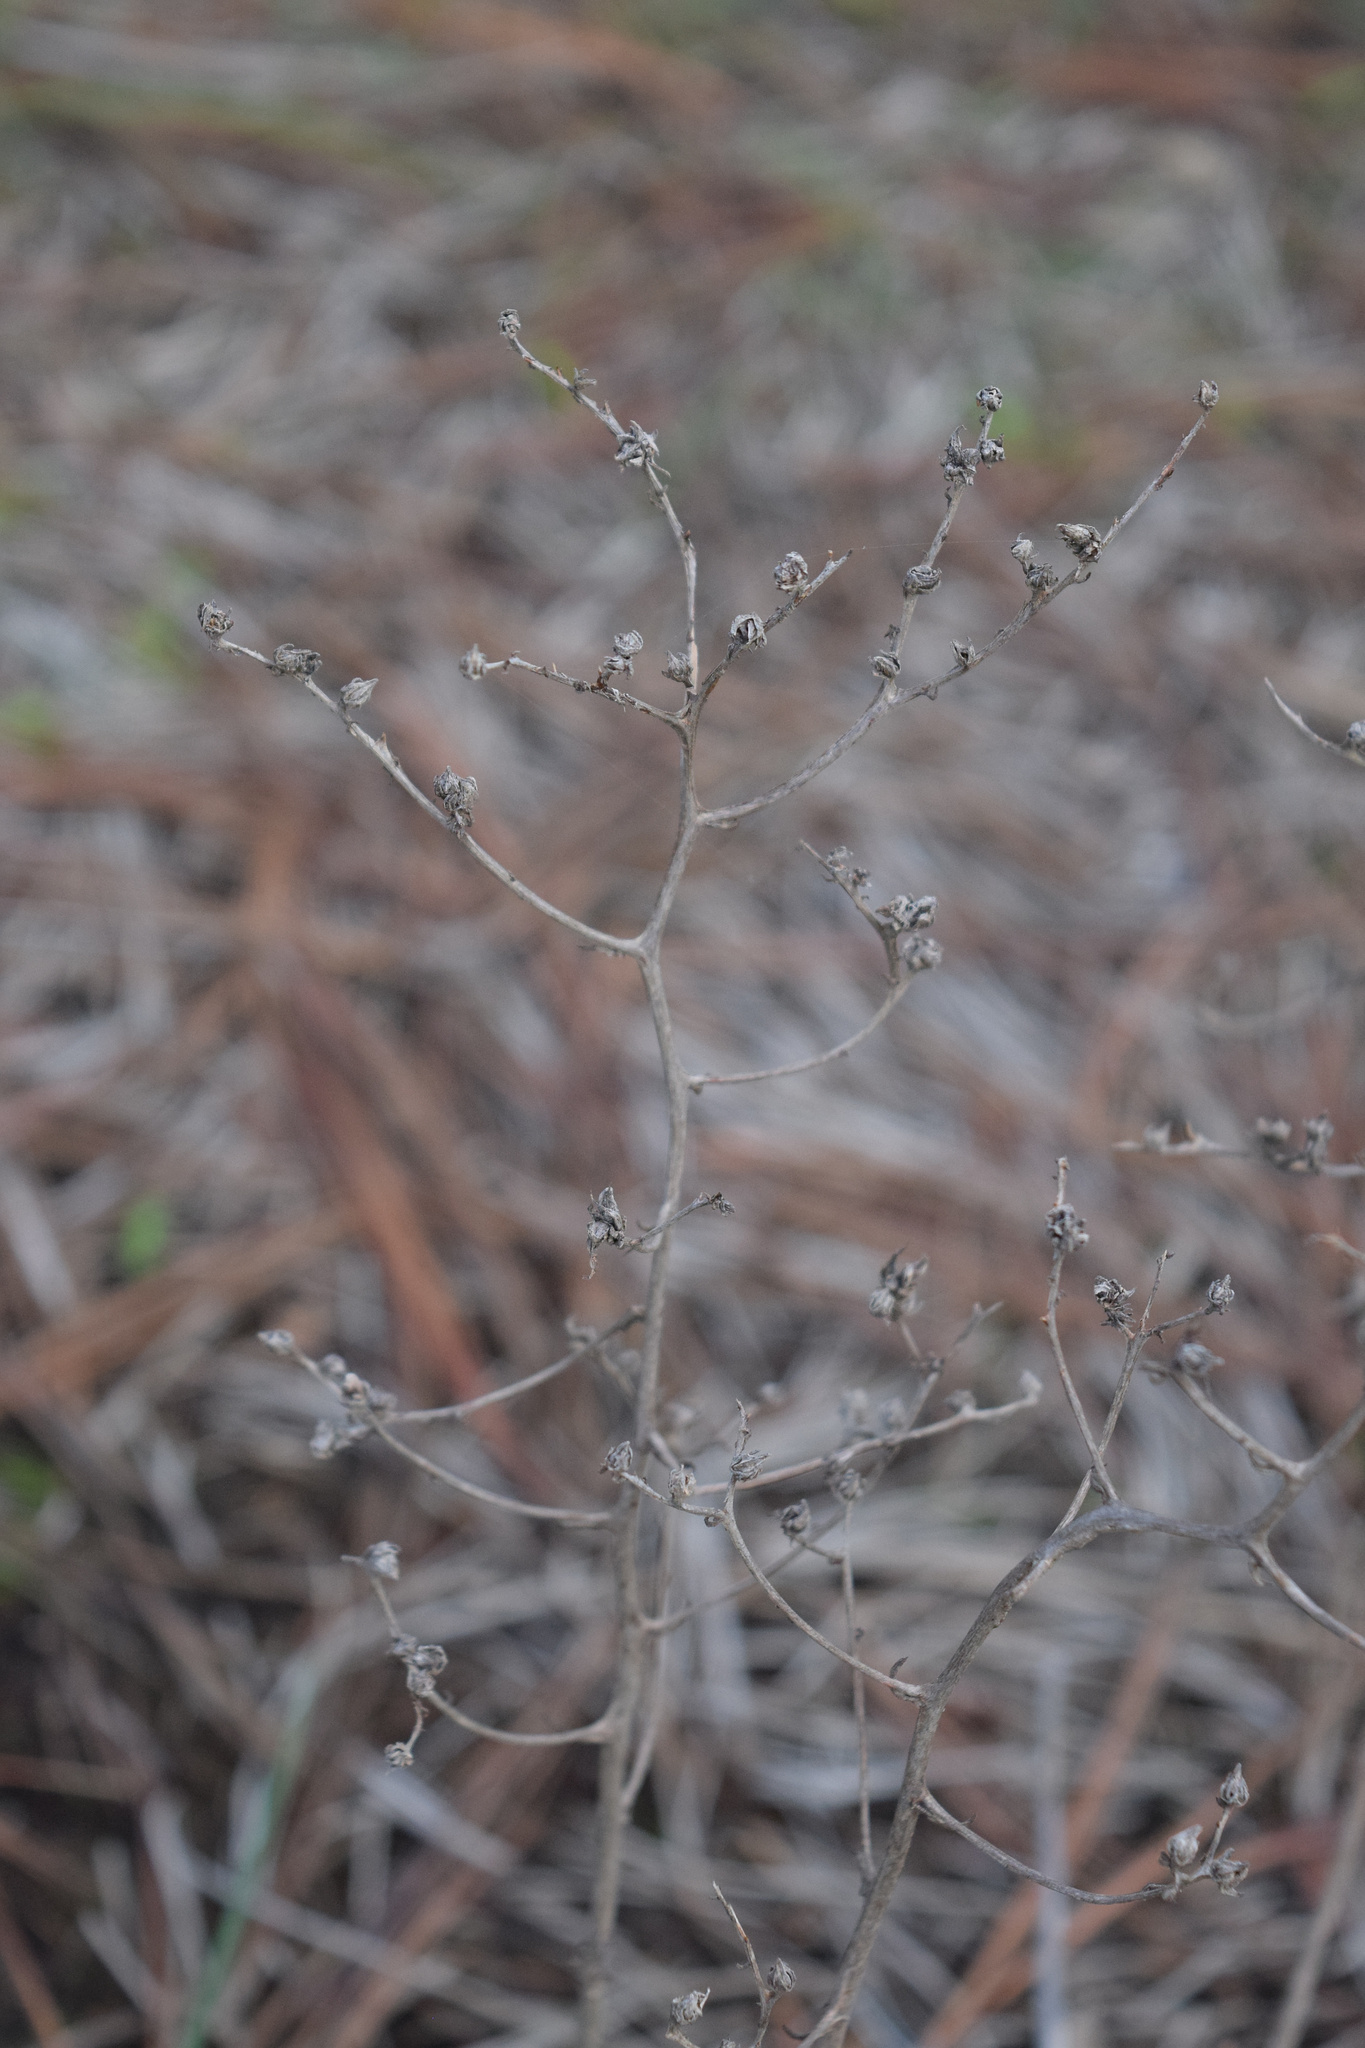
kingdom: Plantae
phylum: Tracheophyta
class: Magnoliopsida
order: Saxifragales
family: Crassulaceae
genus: Dudleya
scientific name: Dudleya edulis
